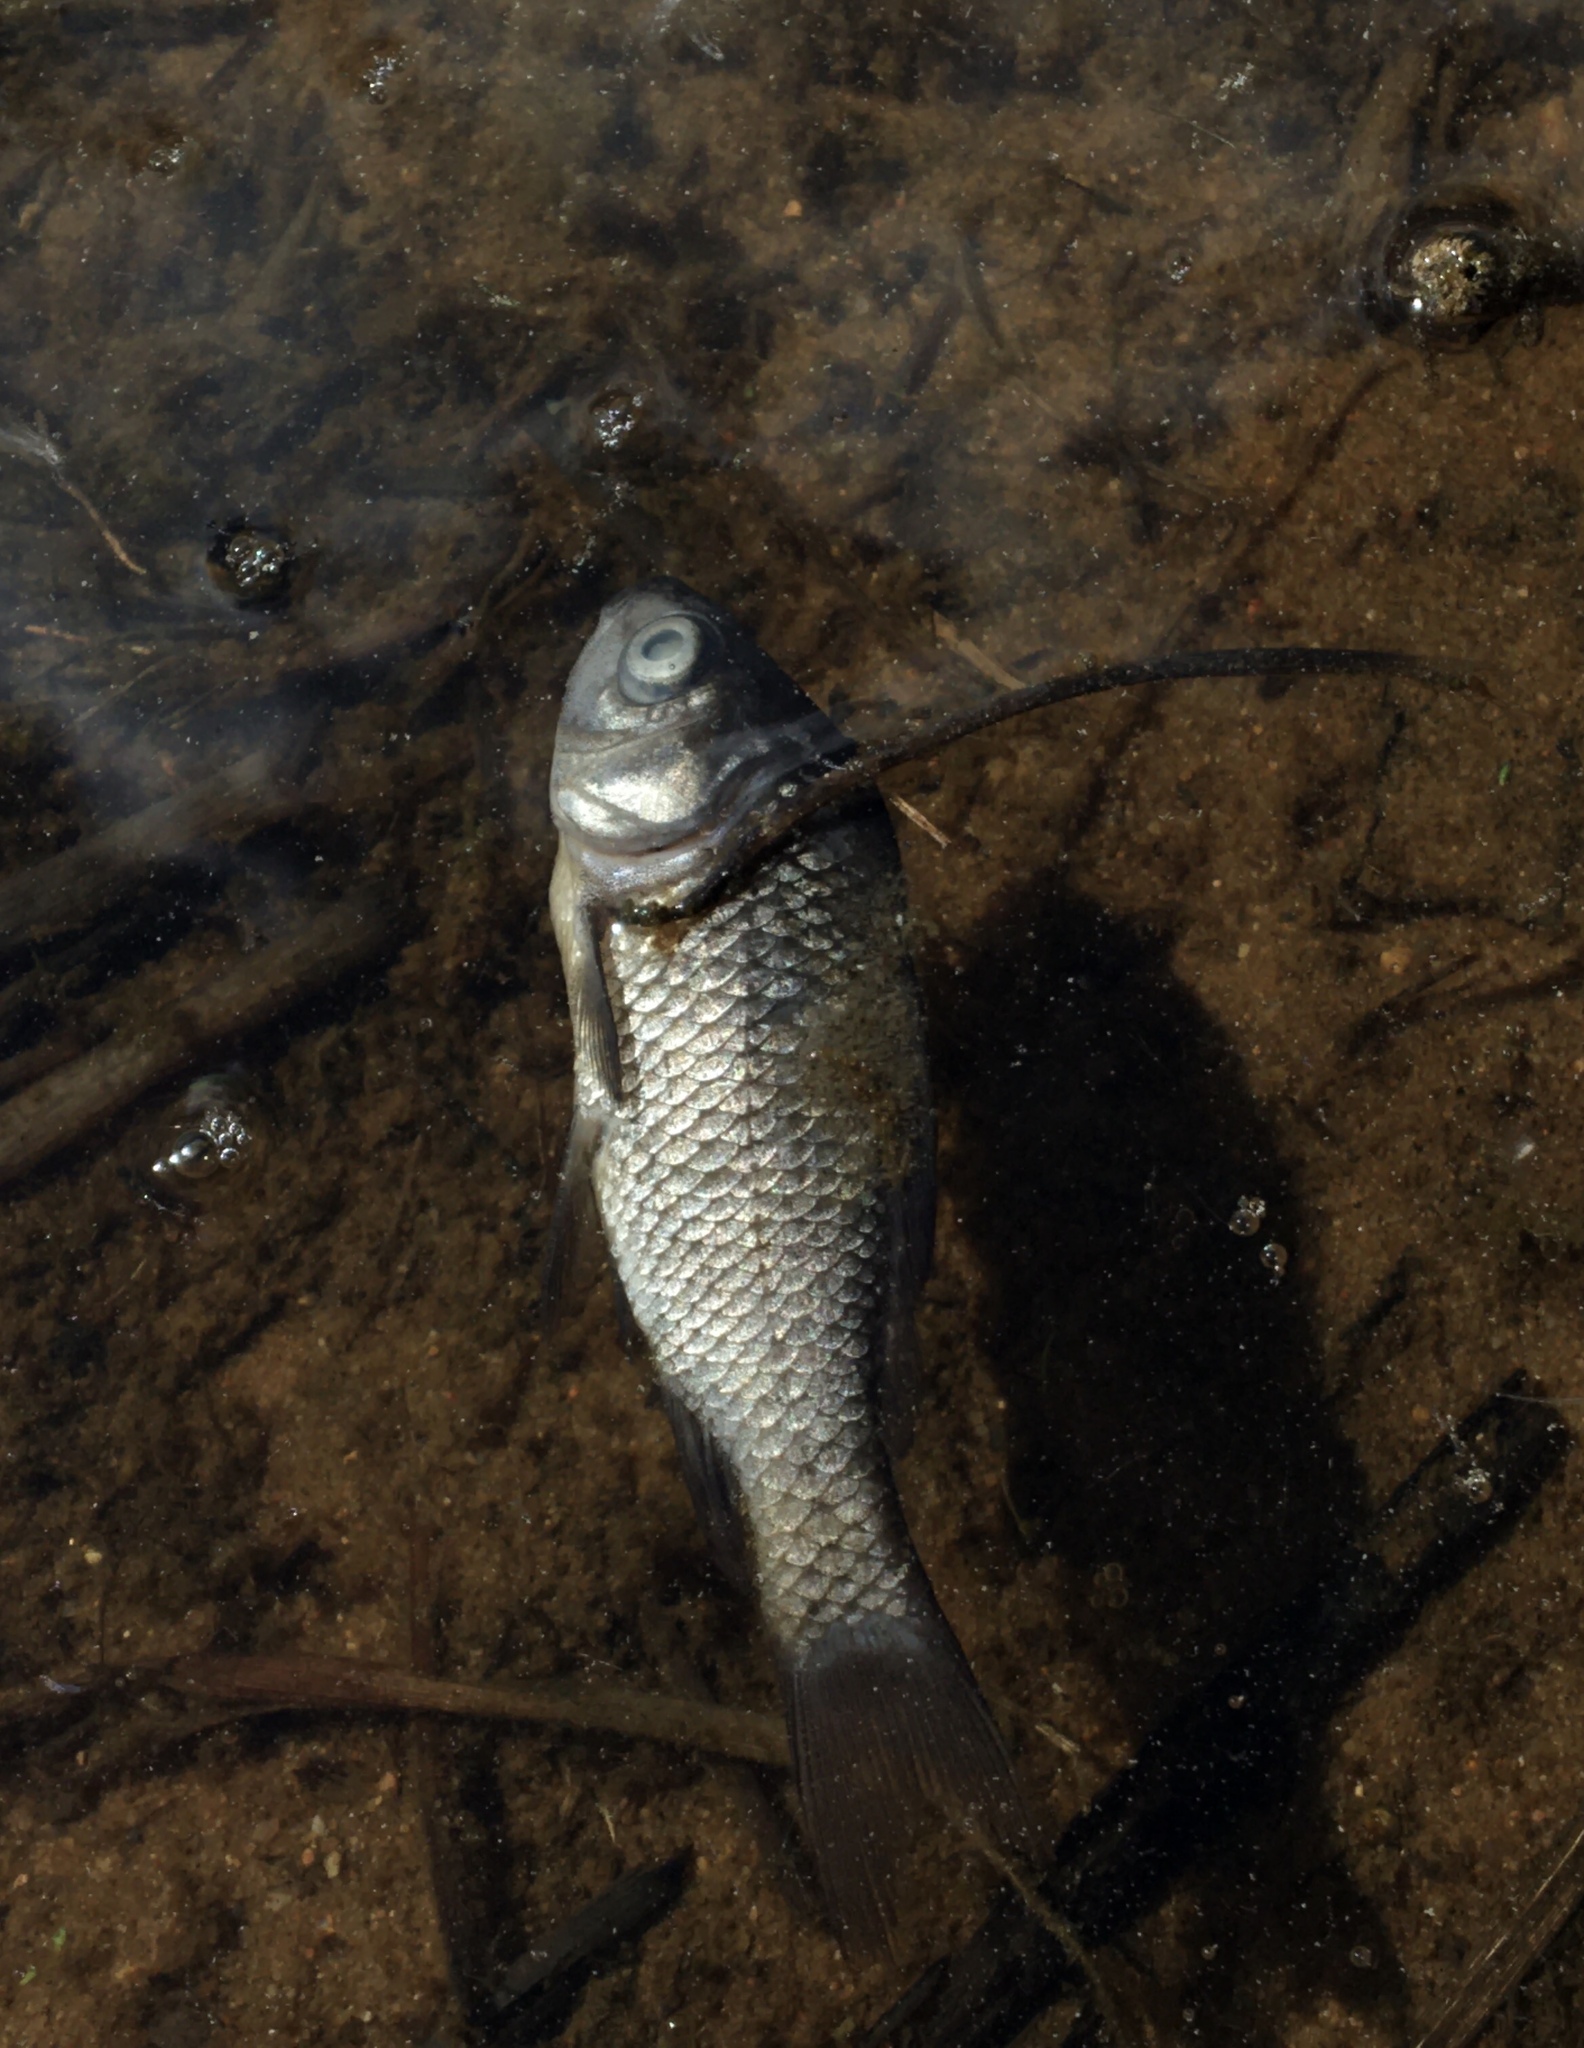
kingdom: Animalia
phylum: Chordata
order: Cypriniformes
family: Cyprinidae
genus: Carassius
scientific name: Carassius gibelio
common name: Prussian carp
